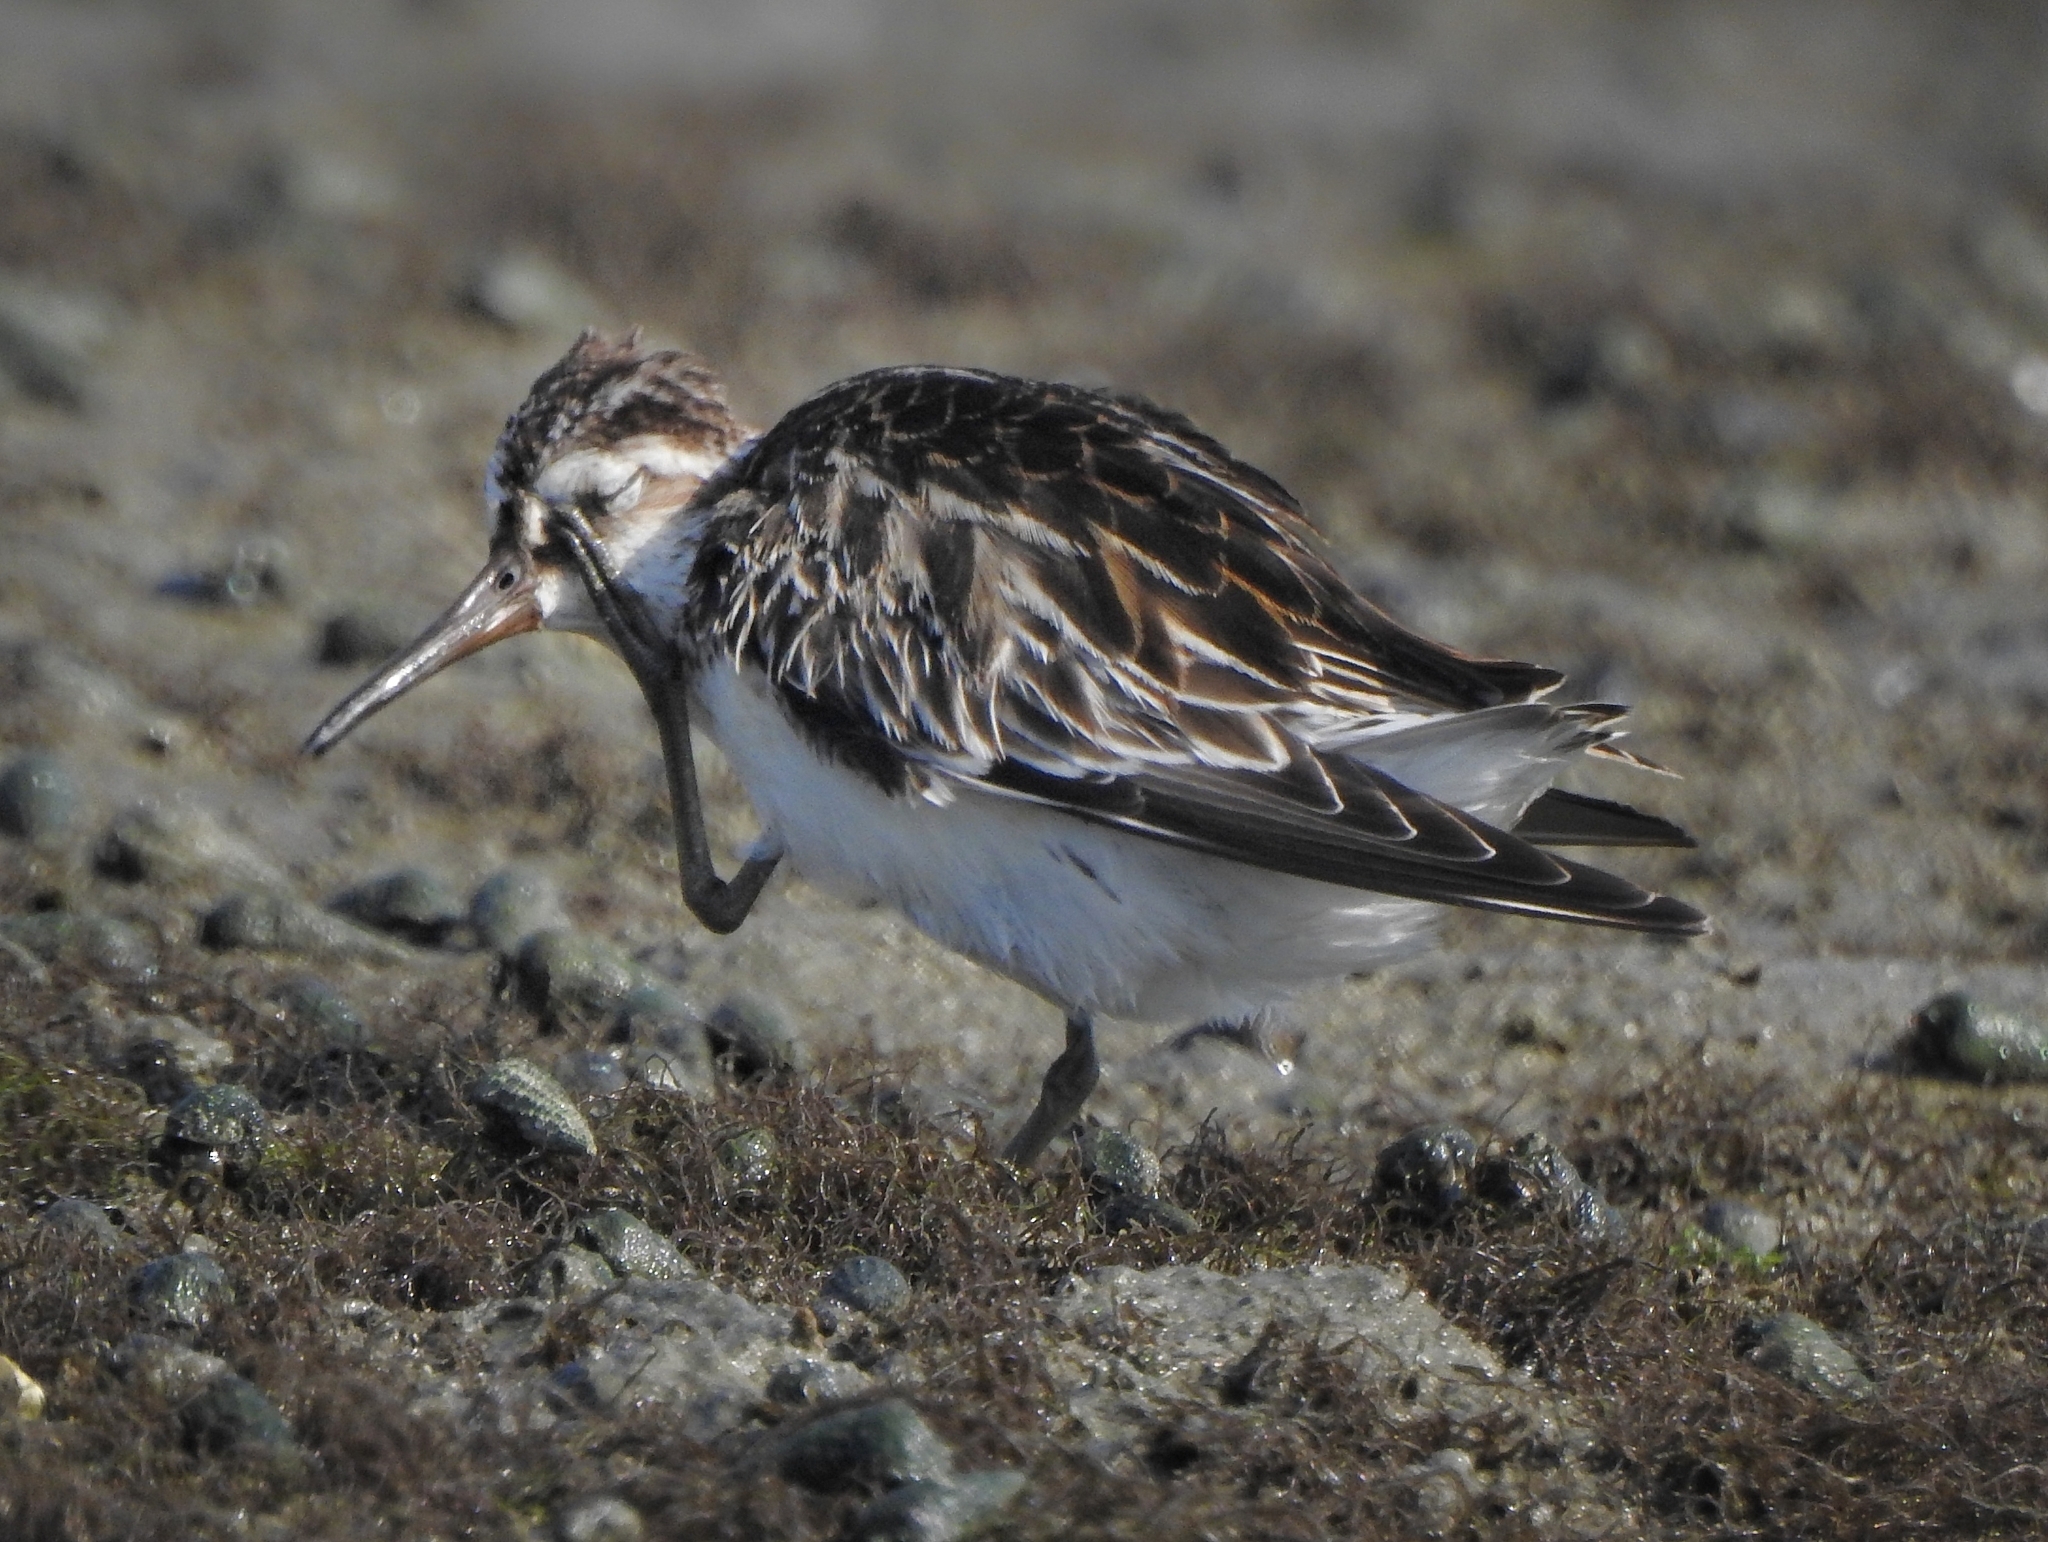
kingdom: Animalia
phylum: Chordata
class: Aves
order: Charadriiformes
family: Scolopacidae
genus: Calidris
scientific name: Calidris falcinellus
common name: Broad-billed sandpiper
